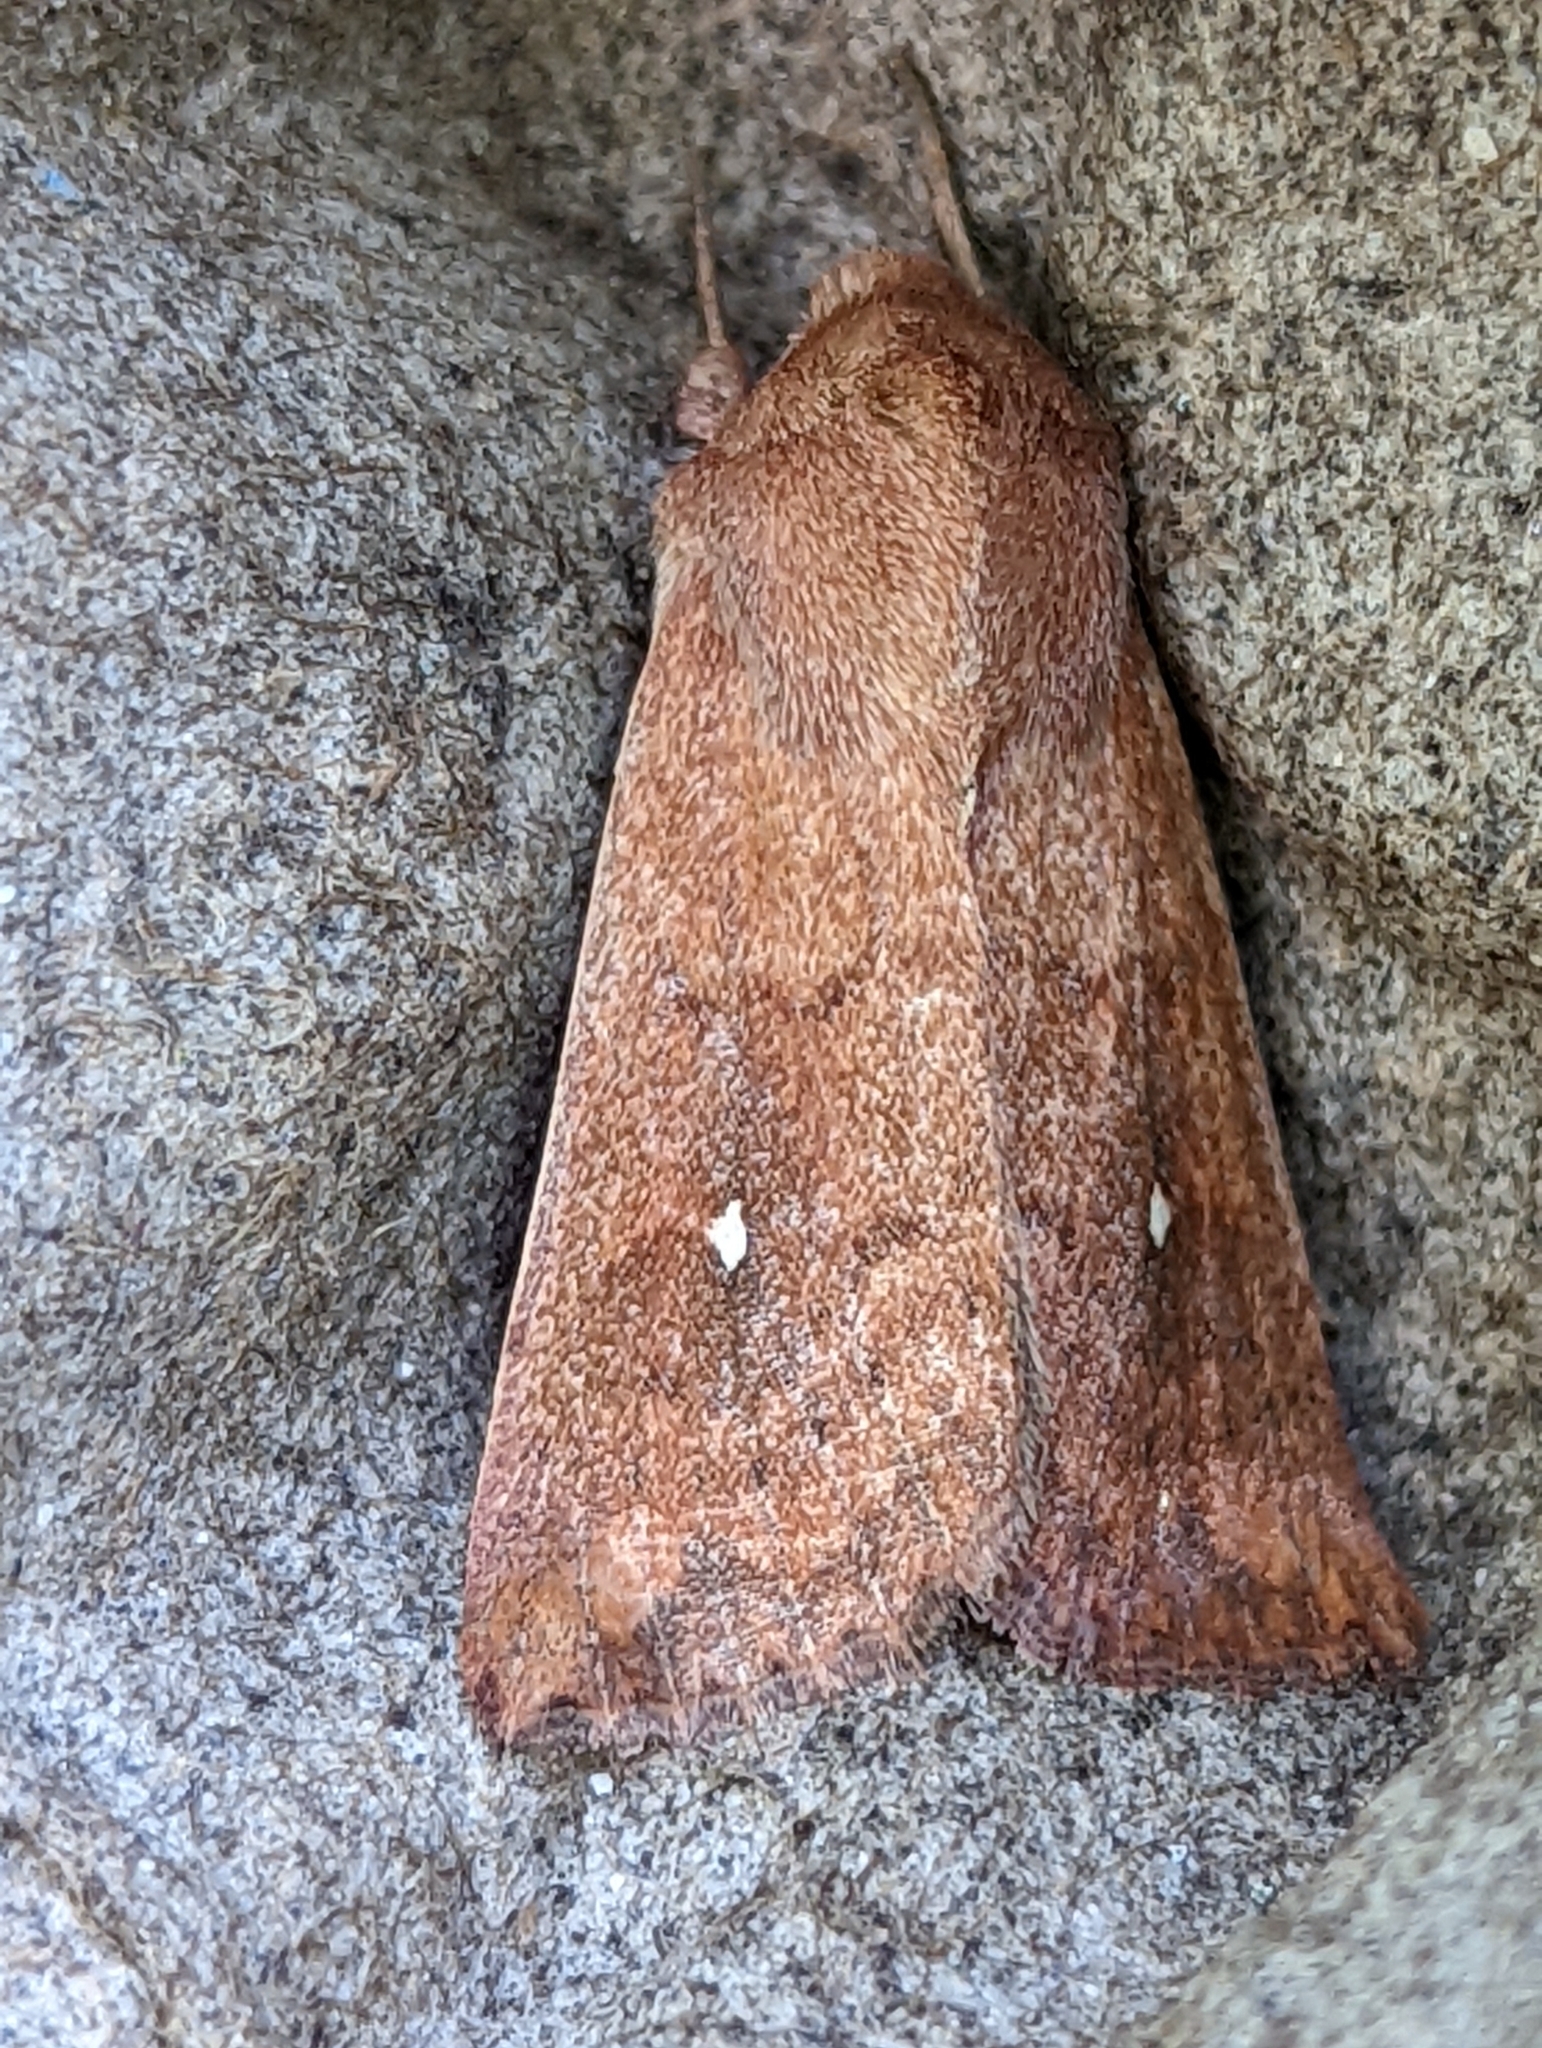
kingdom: Animalia
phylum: Arthropoda
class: Insecta
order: Lepidoptera
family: Noctuidae
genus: Mythimna
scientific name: Mythimna albipuncta
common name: White-point
